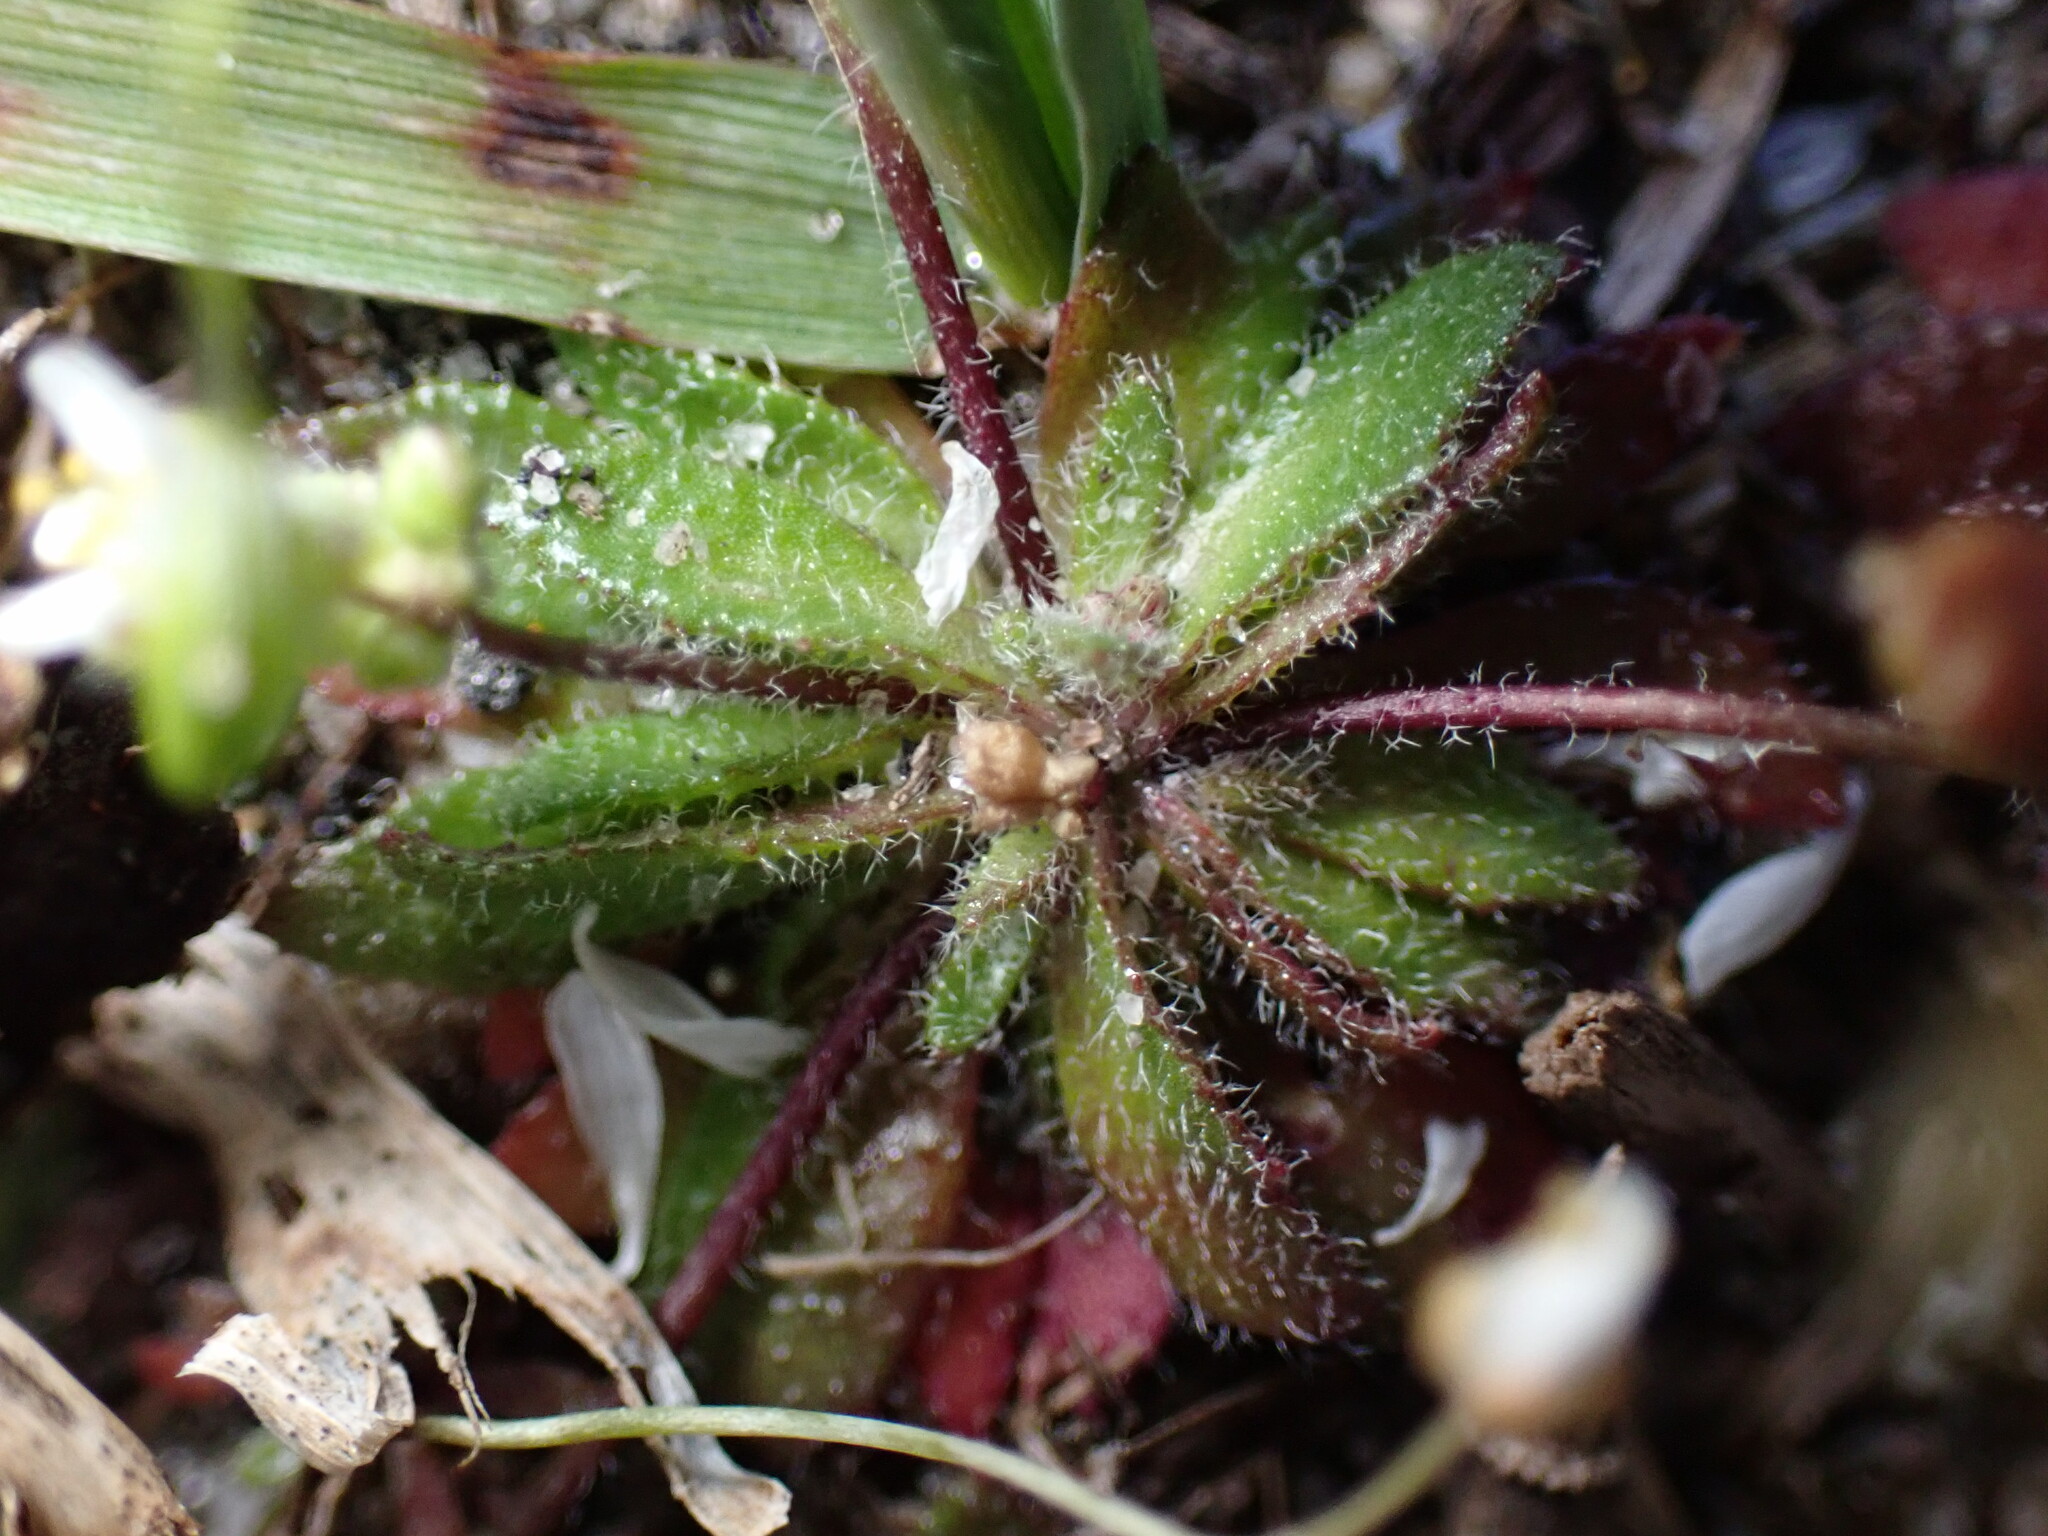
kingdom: Plantae
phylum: Tracheophyta
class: Magnoliopsida
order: Brassicales
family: Brassicaceae
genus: Draba
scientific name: Draba verna
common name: Spring draba
